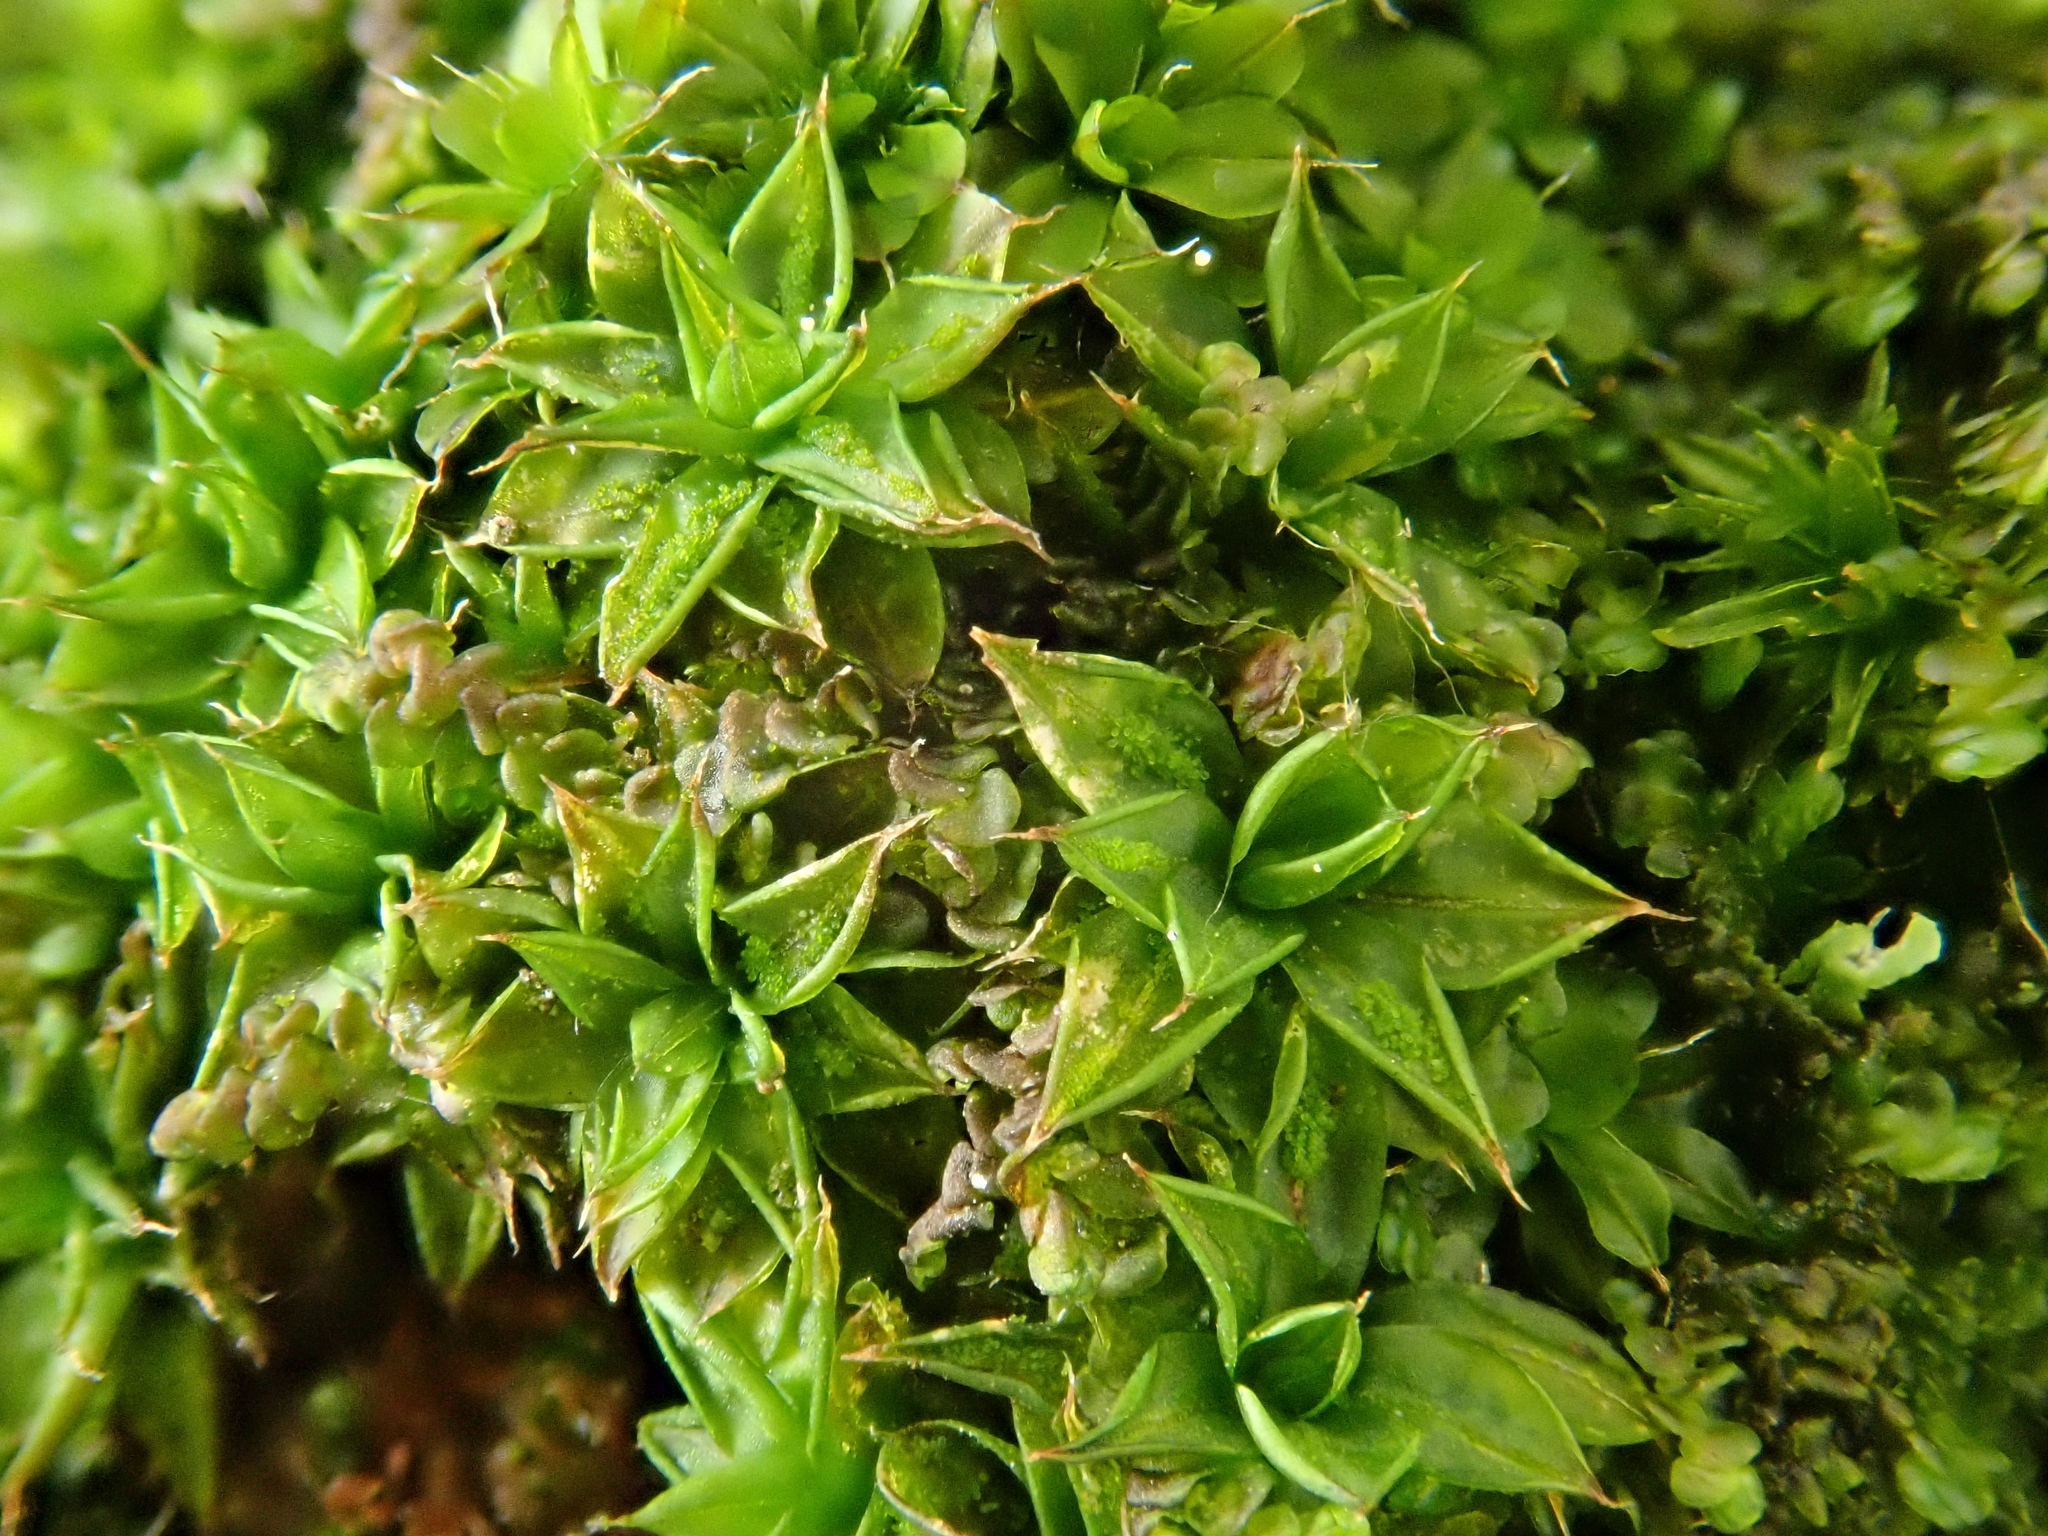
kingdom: Plantae
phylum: Bryophyta
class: Bryopsida
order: Pottiales
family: Pottiaceae
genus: Syntrichia
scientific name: Syntrichia papillosa
